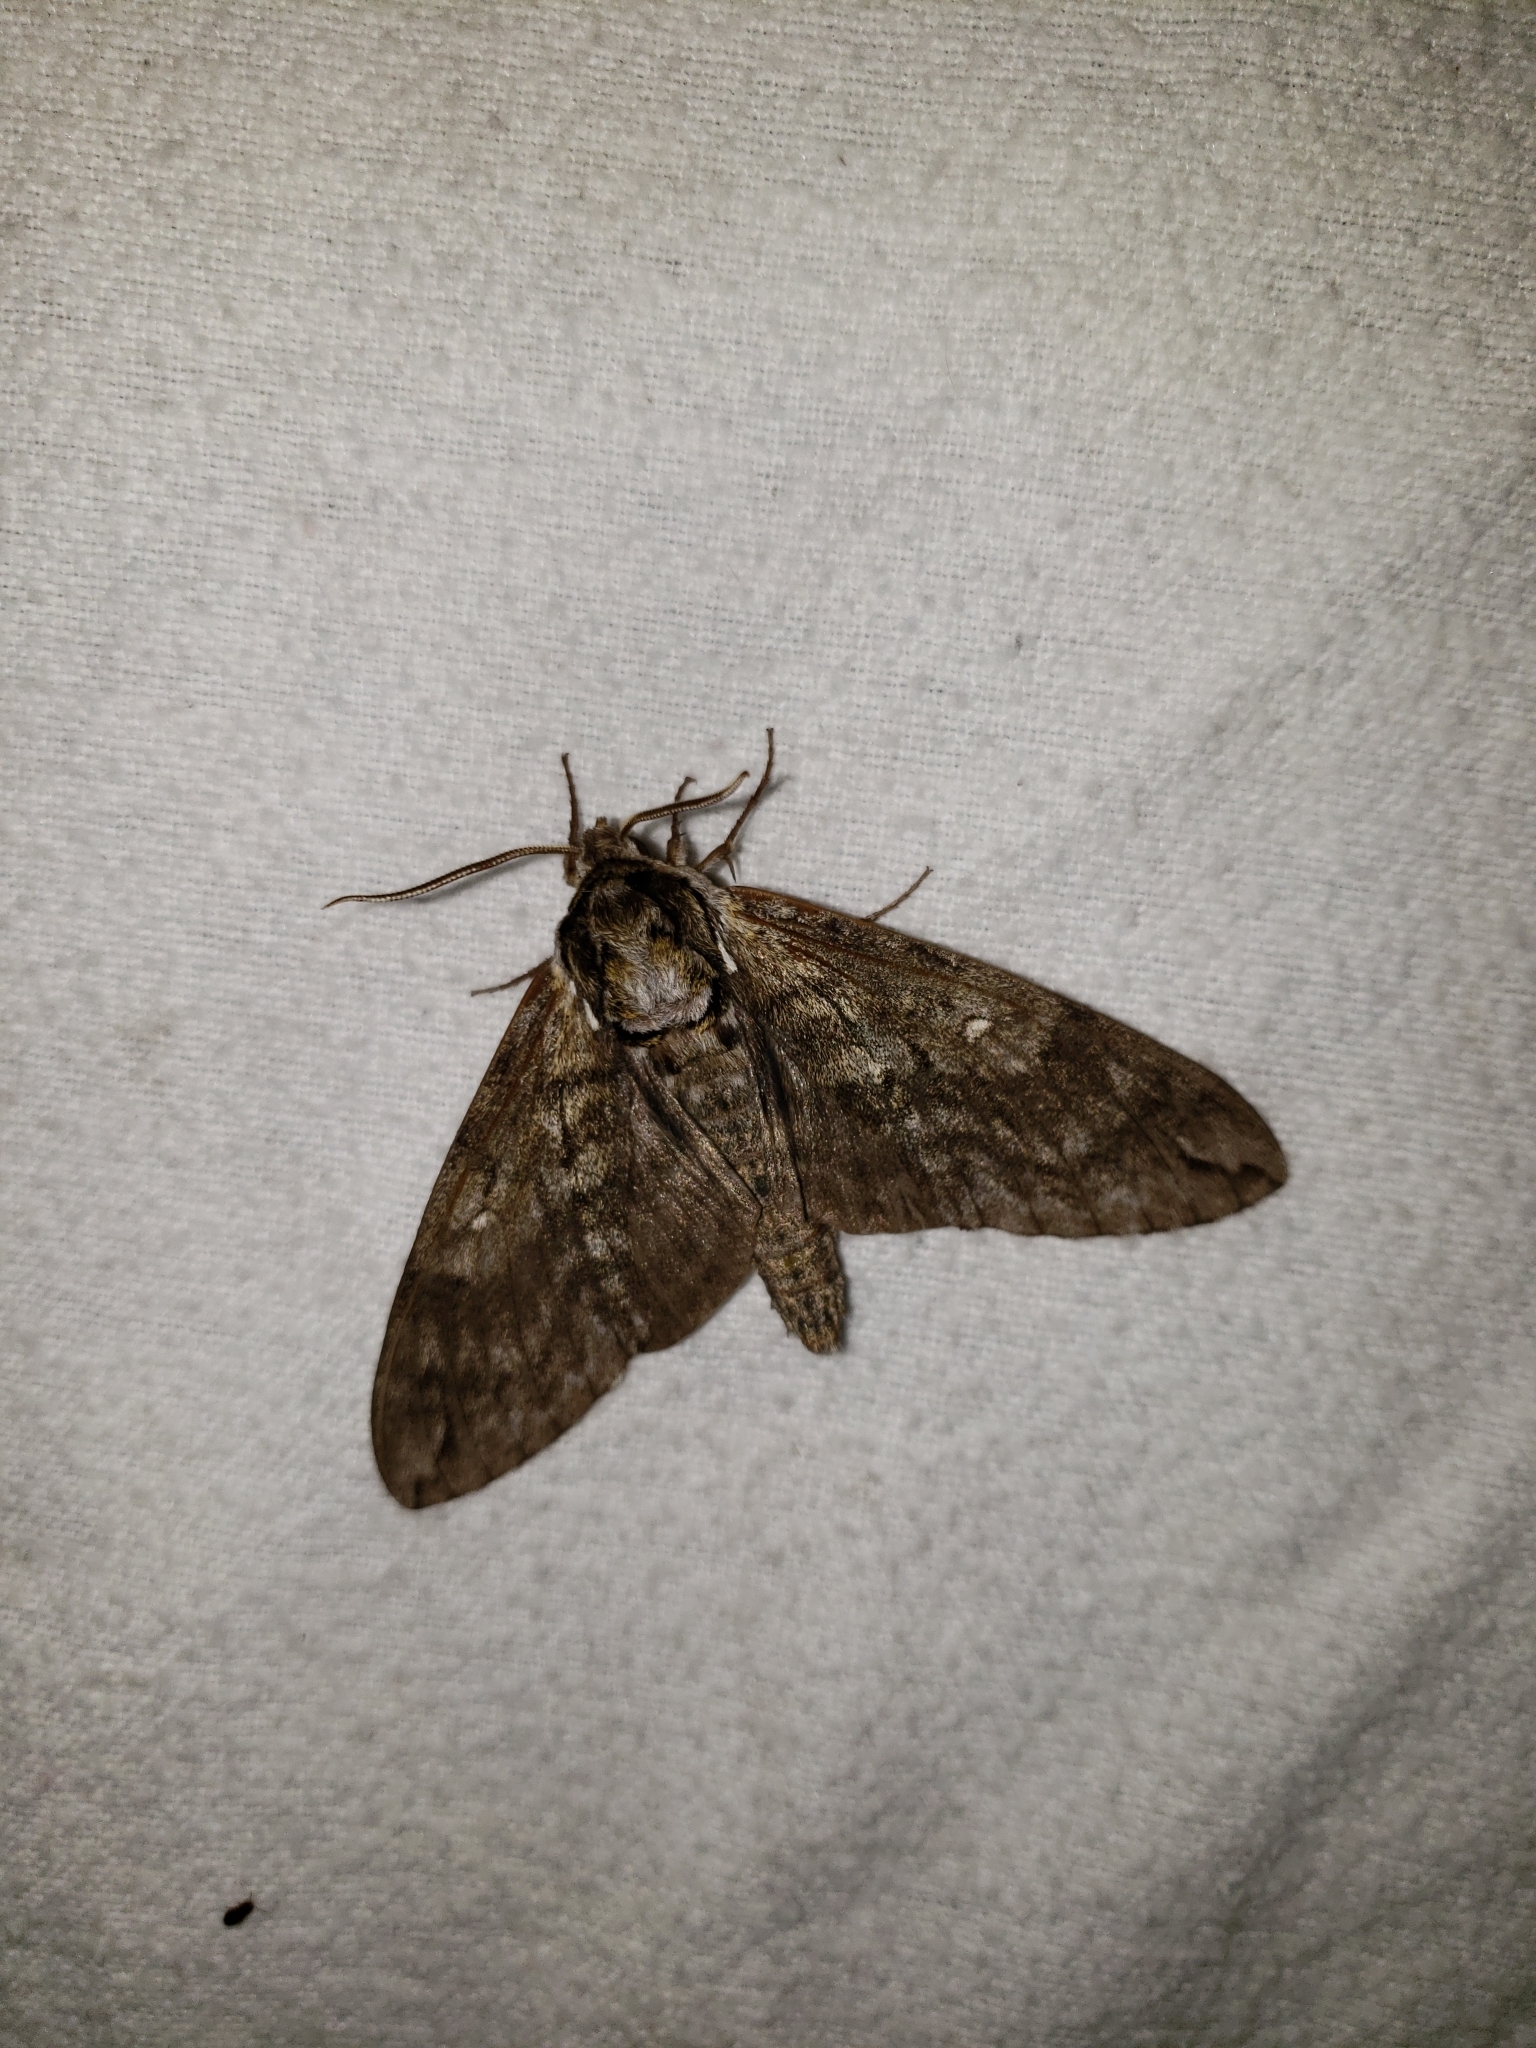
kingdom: Animalia
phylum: Arthropoda
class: Insecta
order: Lepidoptera
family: Sphingidae
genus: Ceratomia
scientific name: Ceratomia undulosa
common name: Waved sphinx
